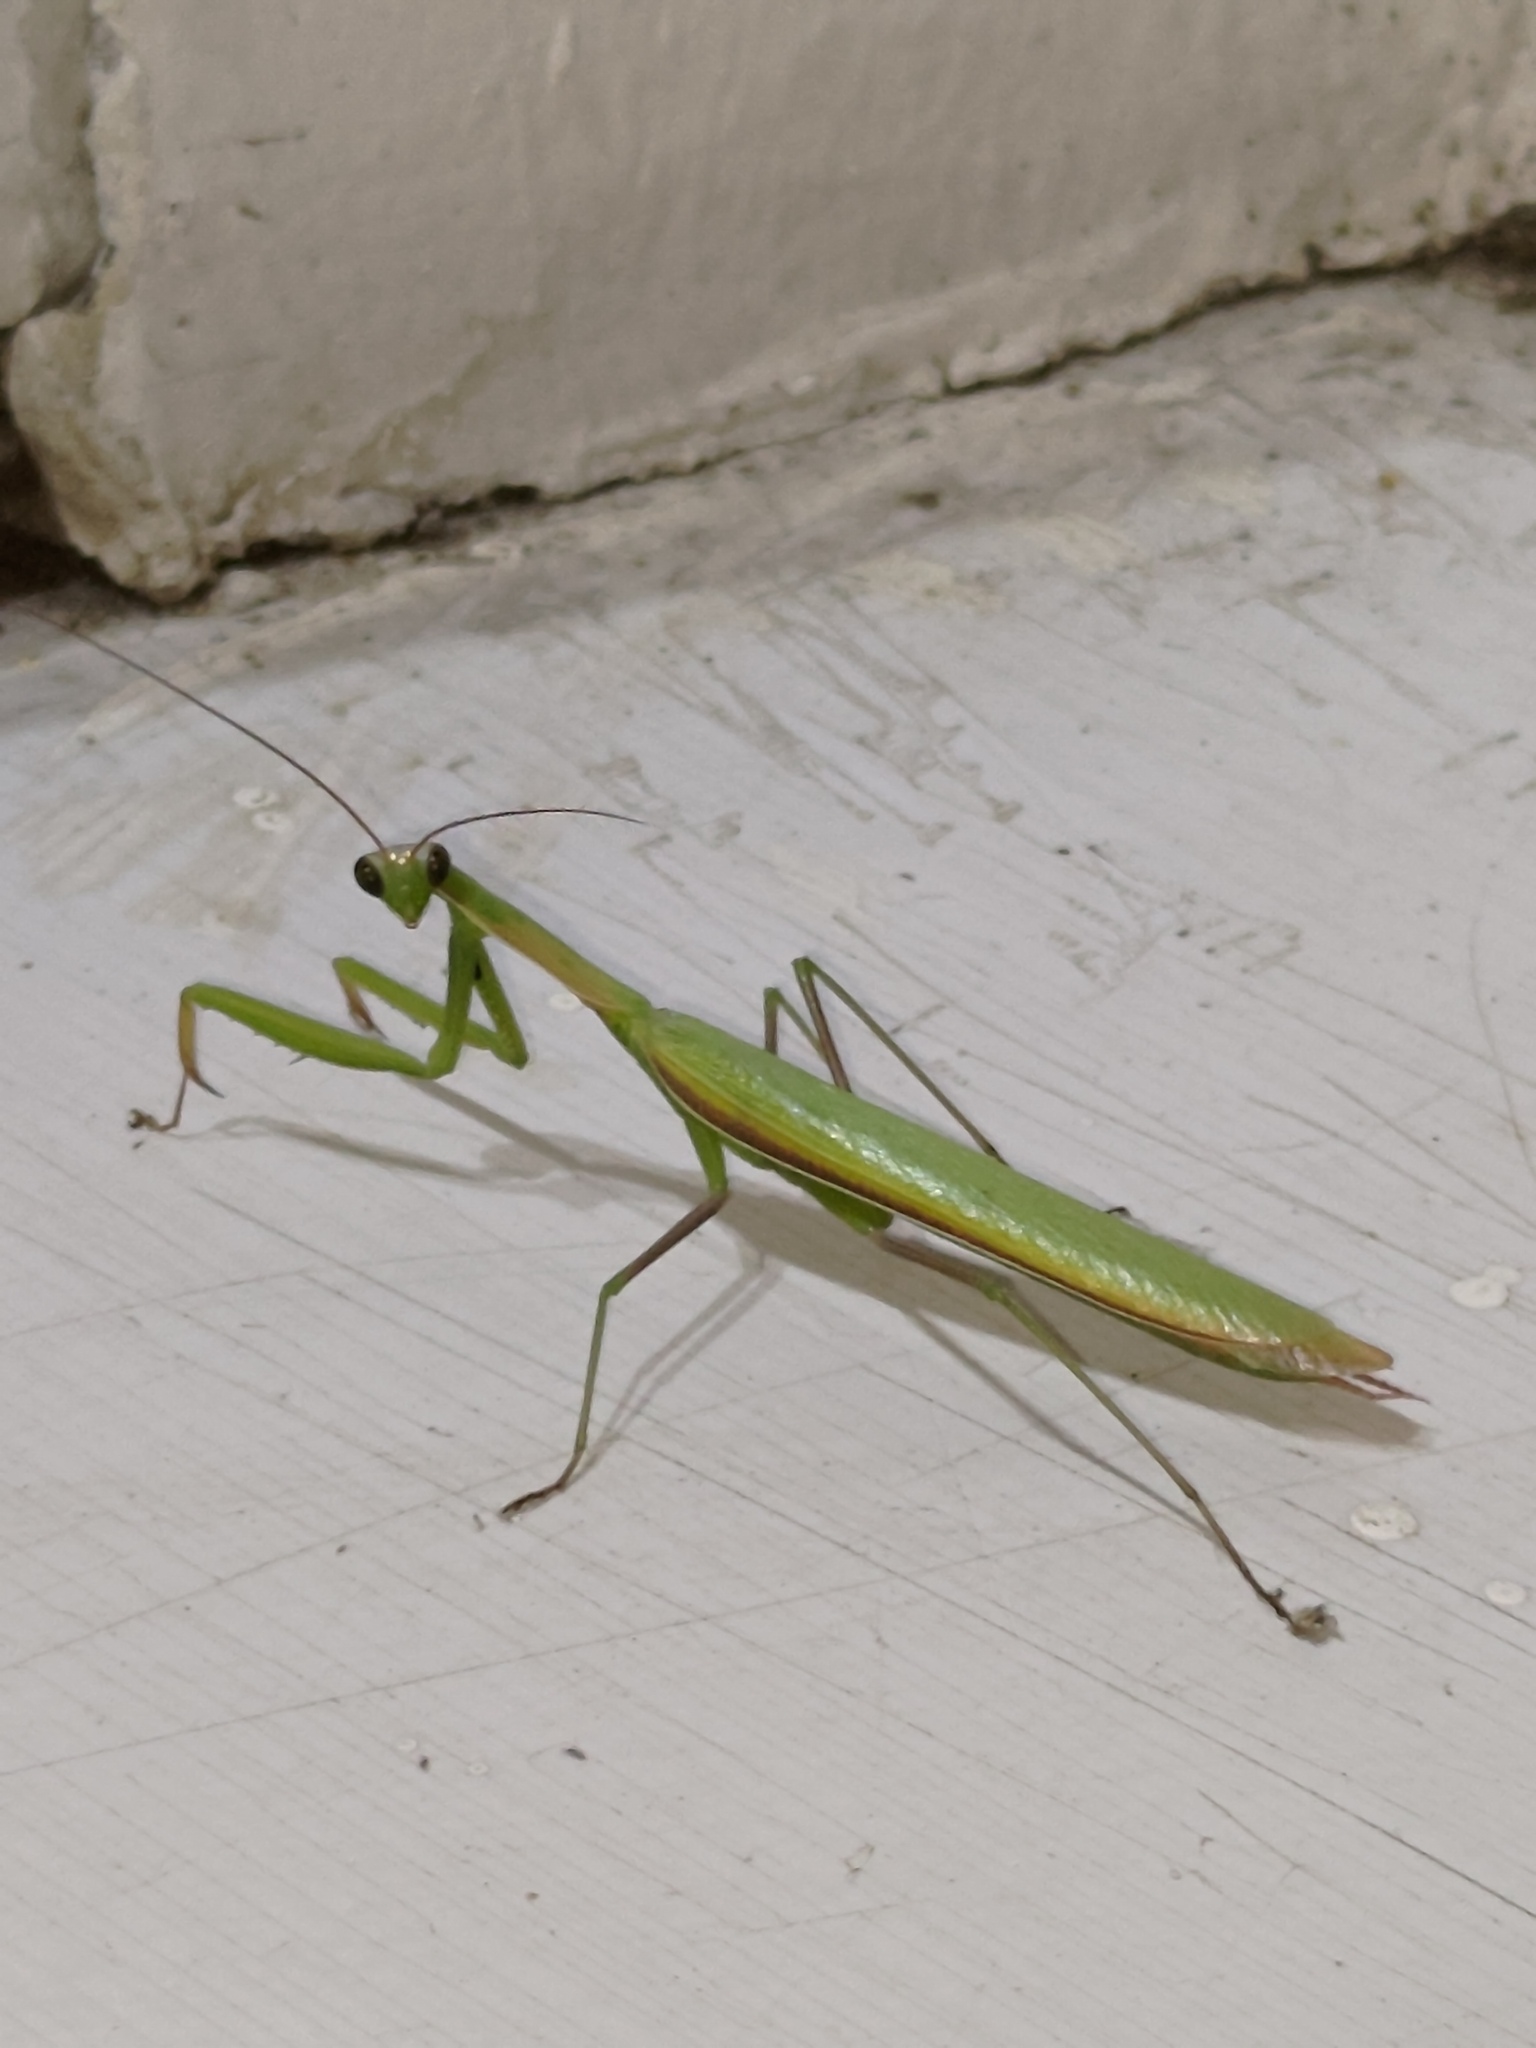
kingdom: Animalia
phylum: Arthropoda
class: Insecta
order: Mantodea
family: Mantidae
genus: Mantis
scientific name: Mantis religiosa
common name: Praying mantis
